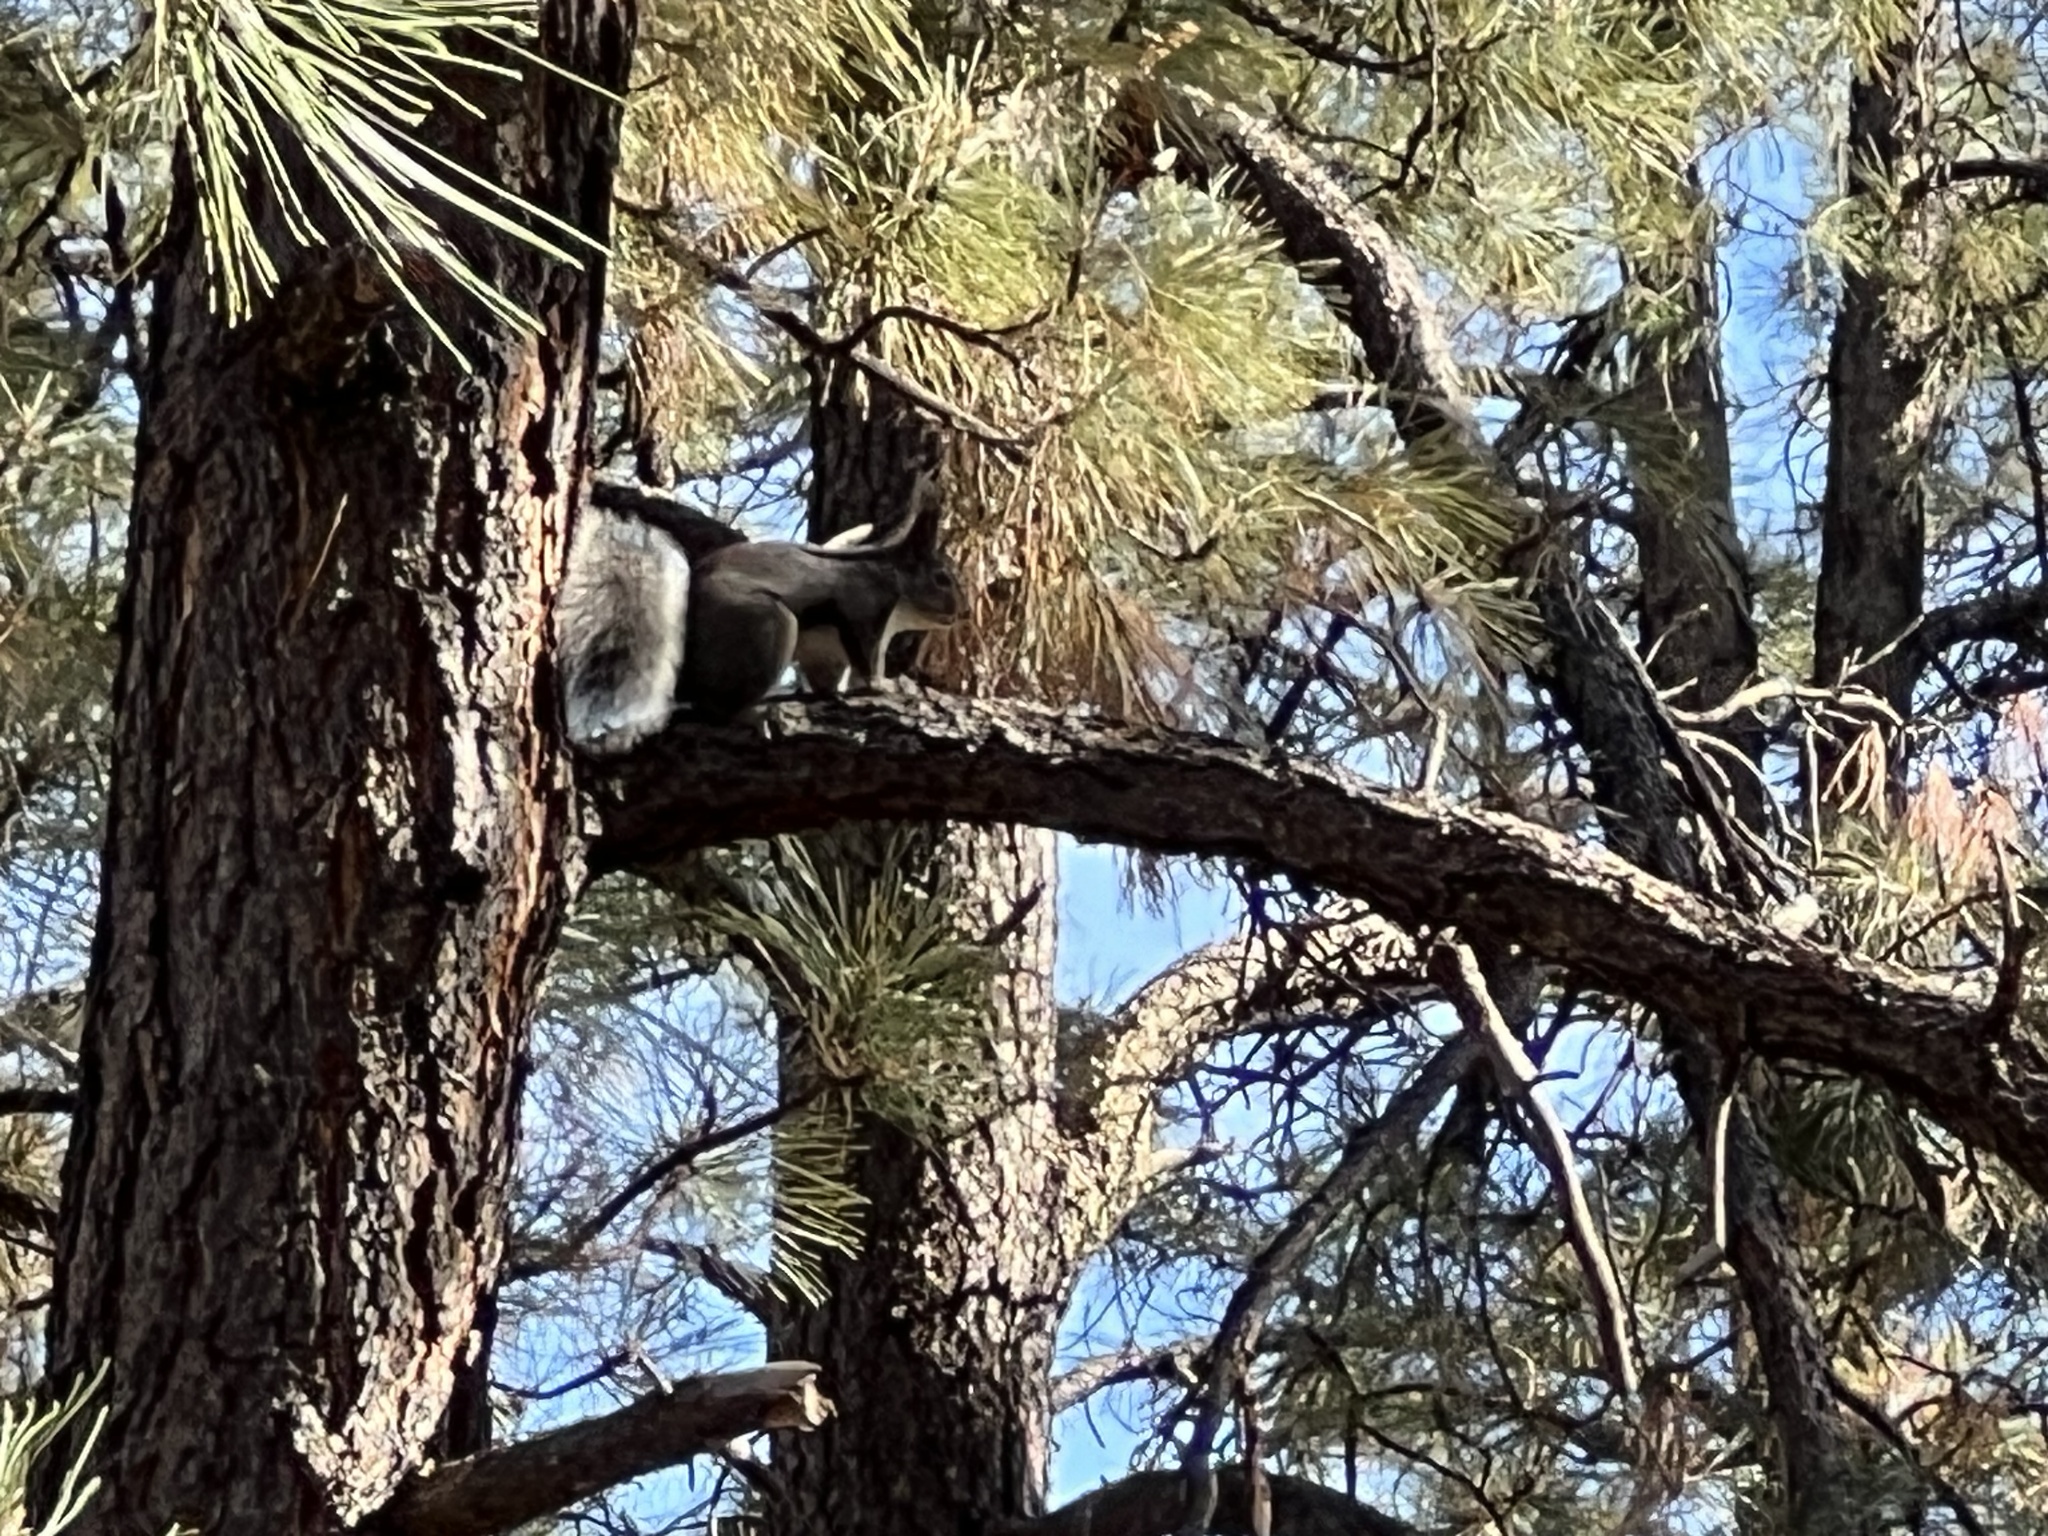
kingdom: Animalia
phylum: Chordata
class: Mammalia
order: Rodentia
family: Sciuridae
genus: Sciurus
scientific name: Sciurus aberti
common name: Abert's squirrel
